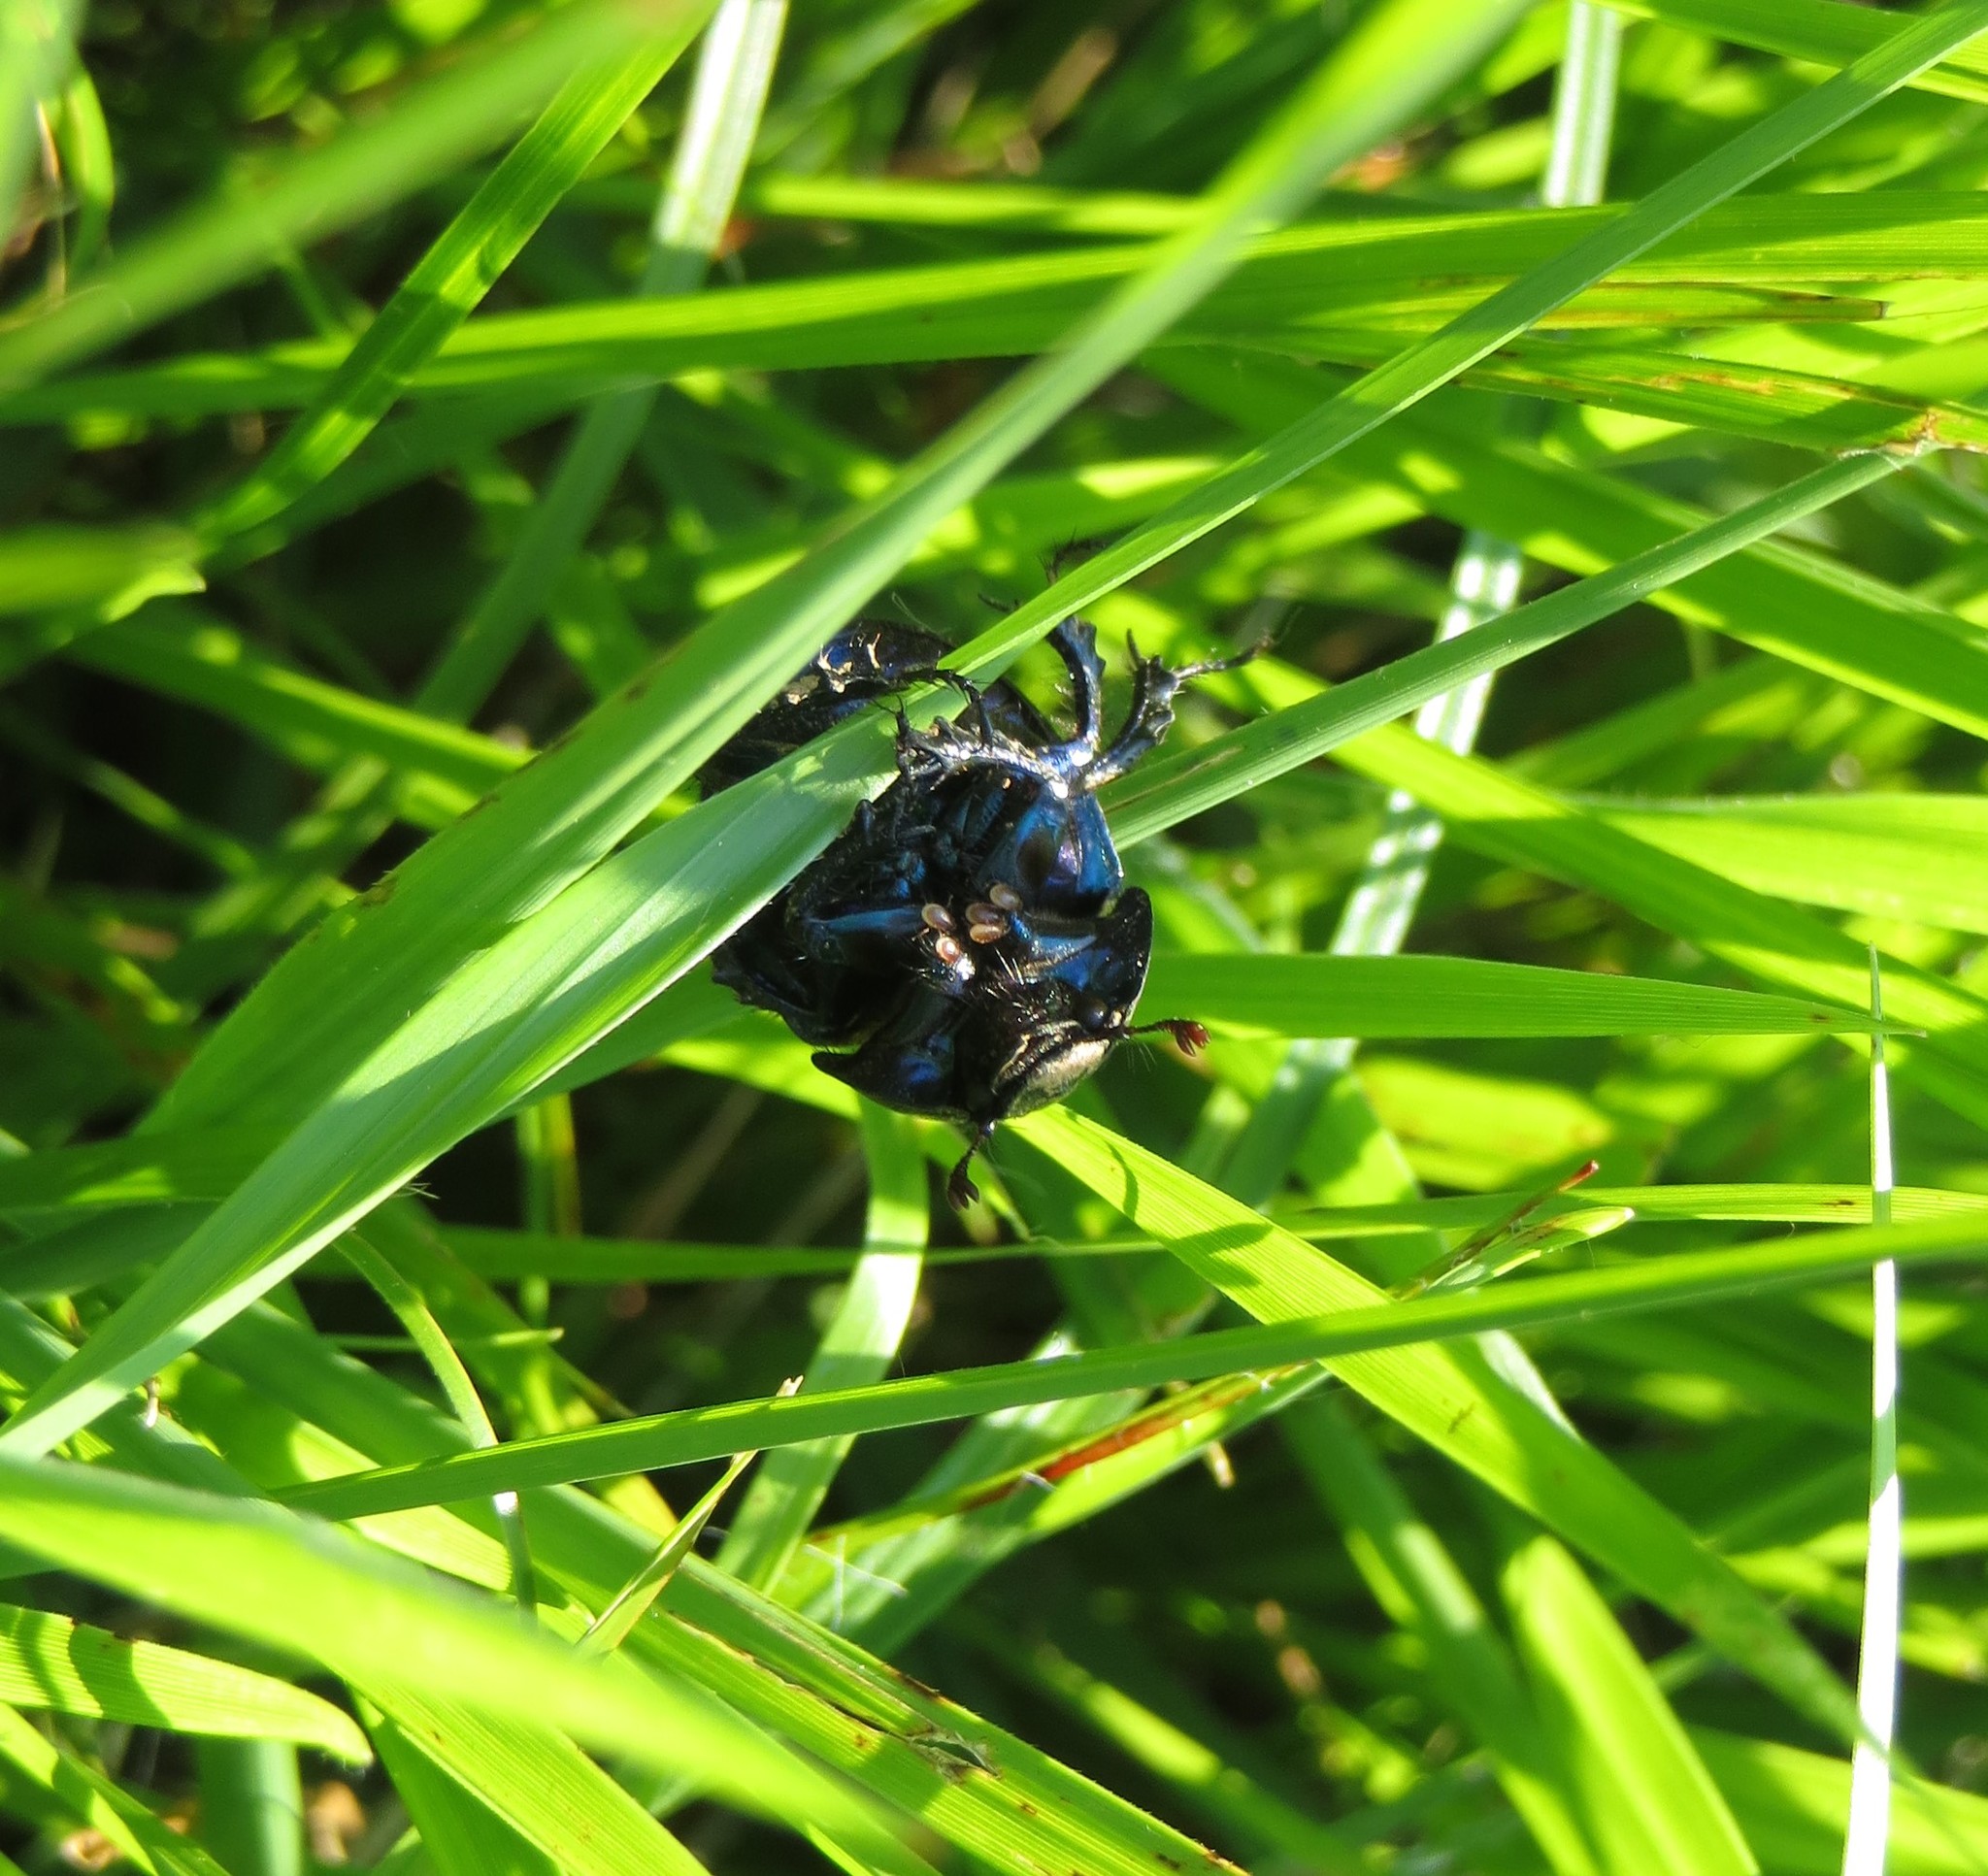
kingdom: Animalia
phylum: Arthropoda
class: Insecta
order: Coleoptera
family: Geotrupidae
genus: Anoplotrupes
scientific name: Anoplotrupes stercorosus
